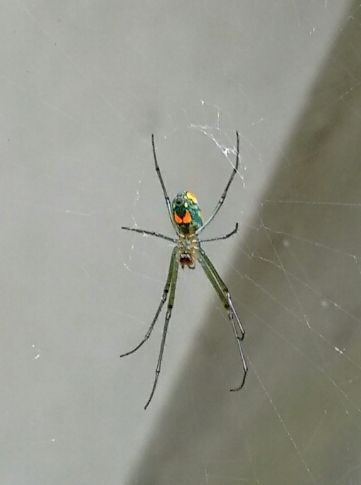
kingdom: Animalia
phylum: Arthropoda
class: Arachnida
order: Araneae
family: Tetragnathidae
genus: Leucauge
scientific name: Leucauge argyrobapta
